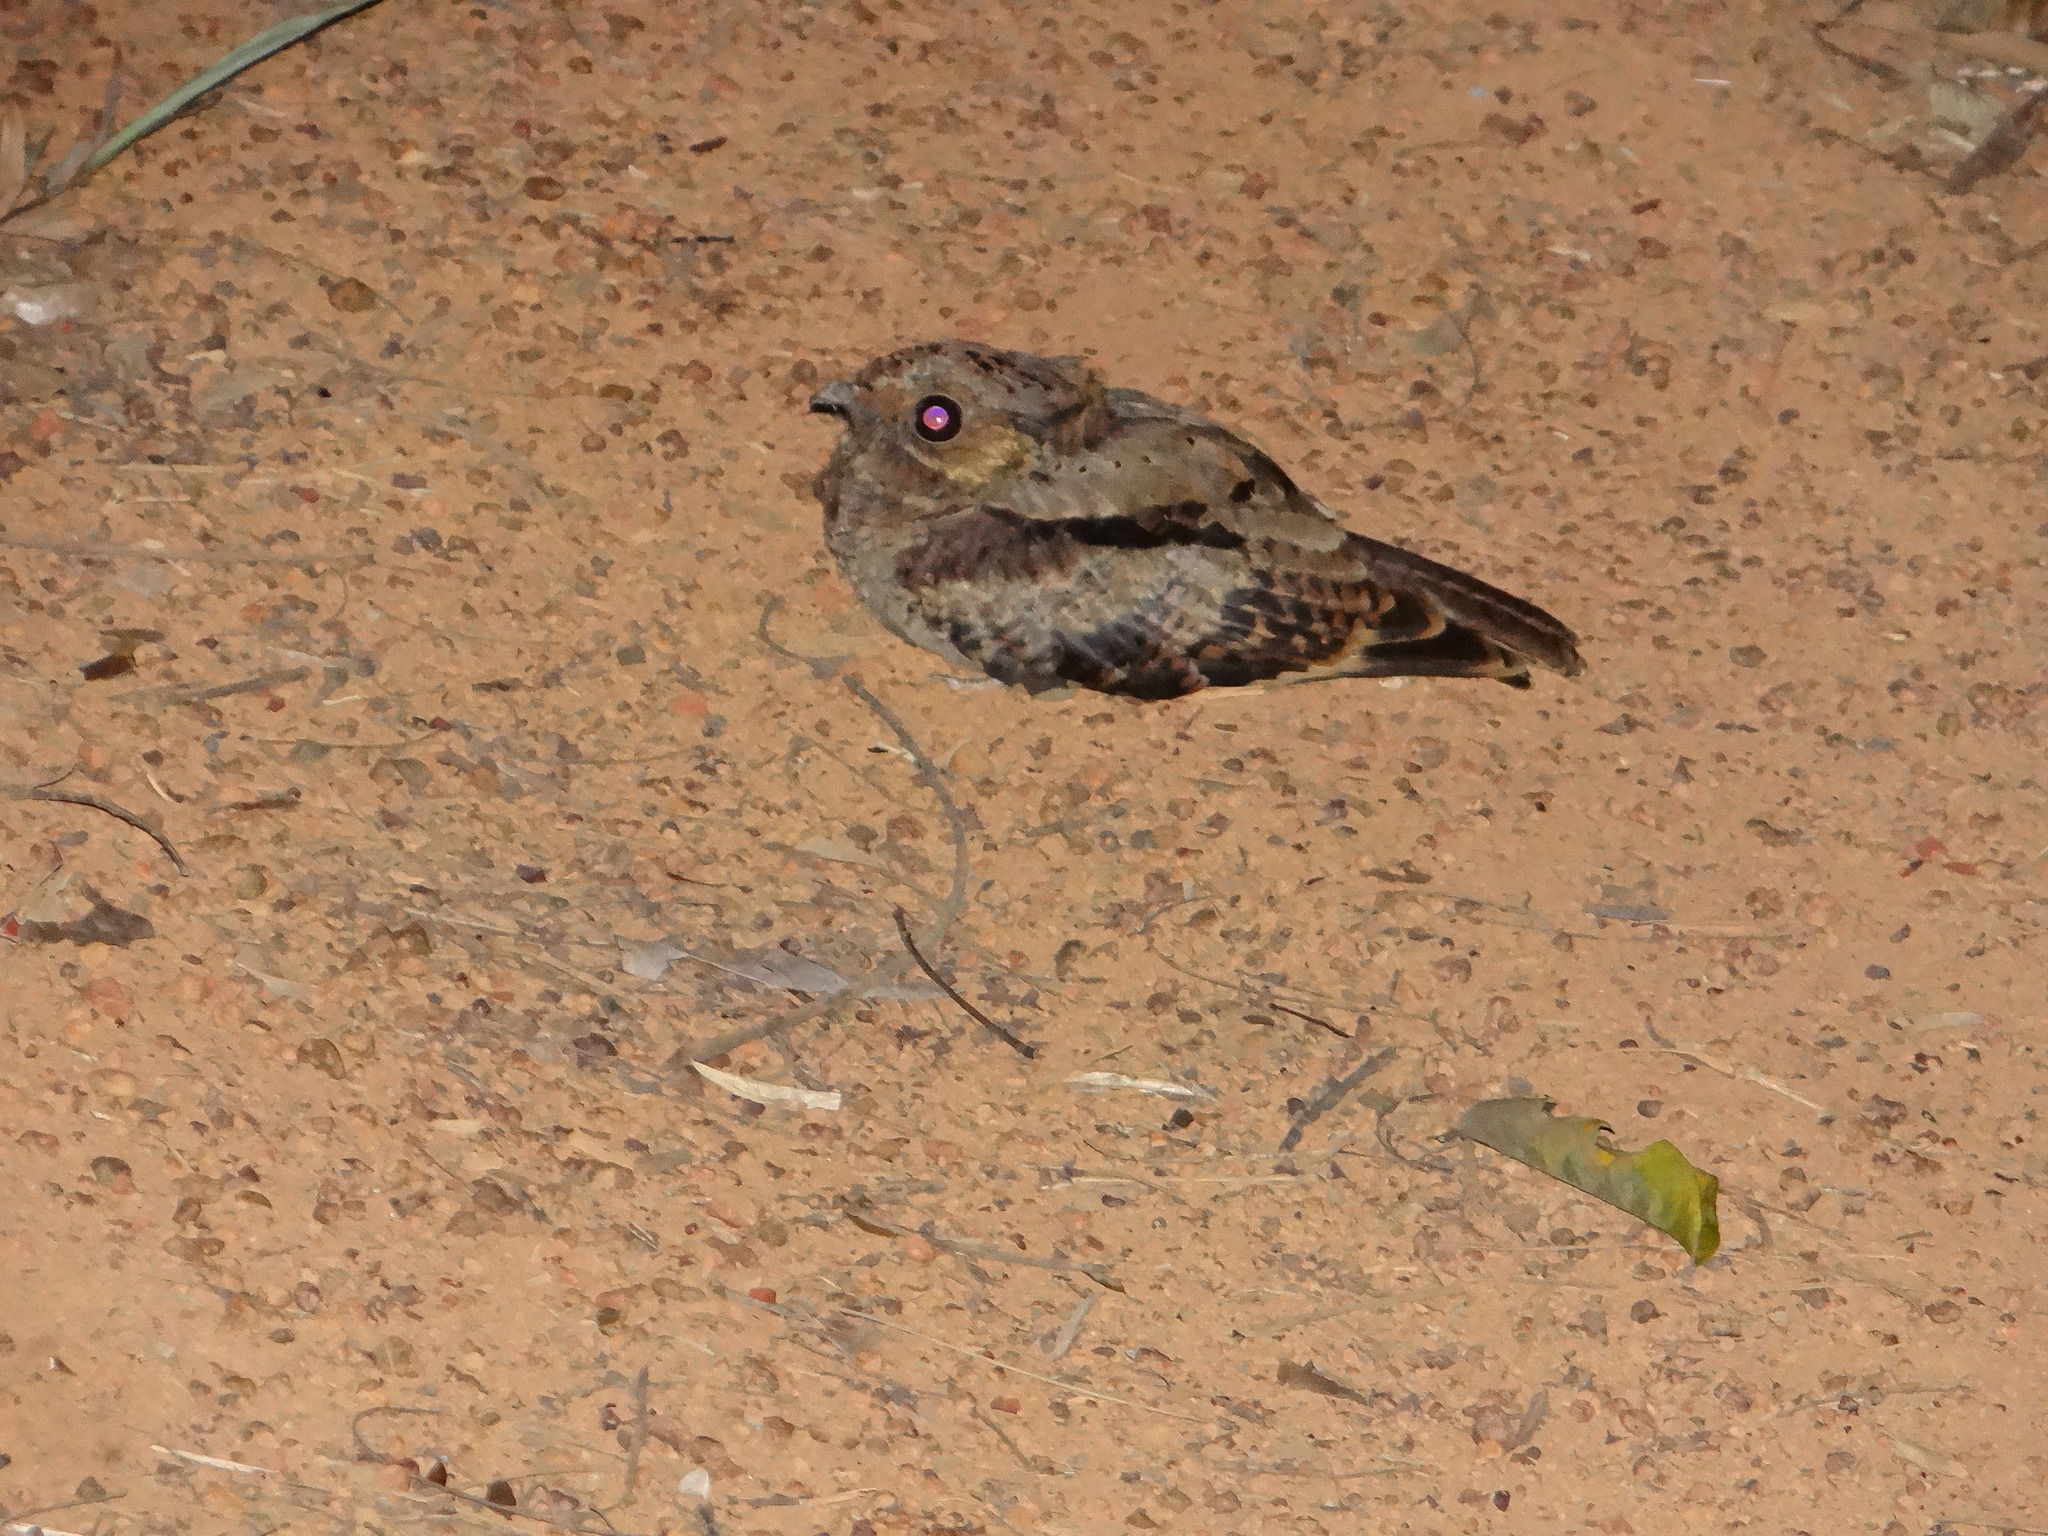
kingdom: Animalia
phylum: Chordata
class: Aves
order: Caprimulgiformes
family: Caprimulgidae
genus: Nyctidromus
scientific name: Nyctidromus albicollis
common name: Pauraque
